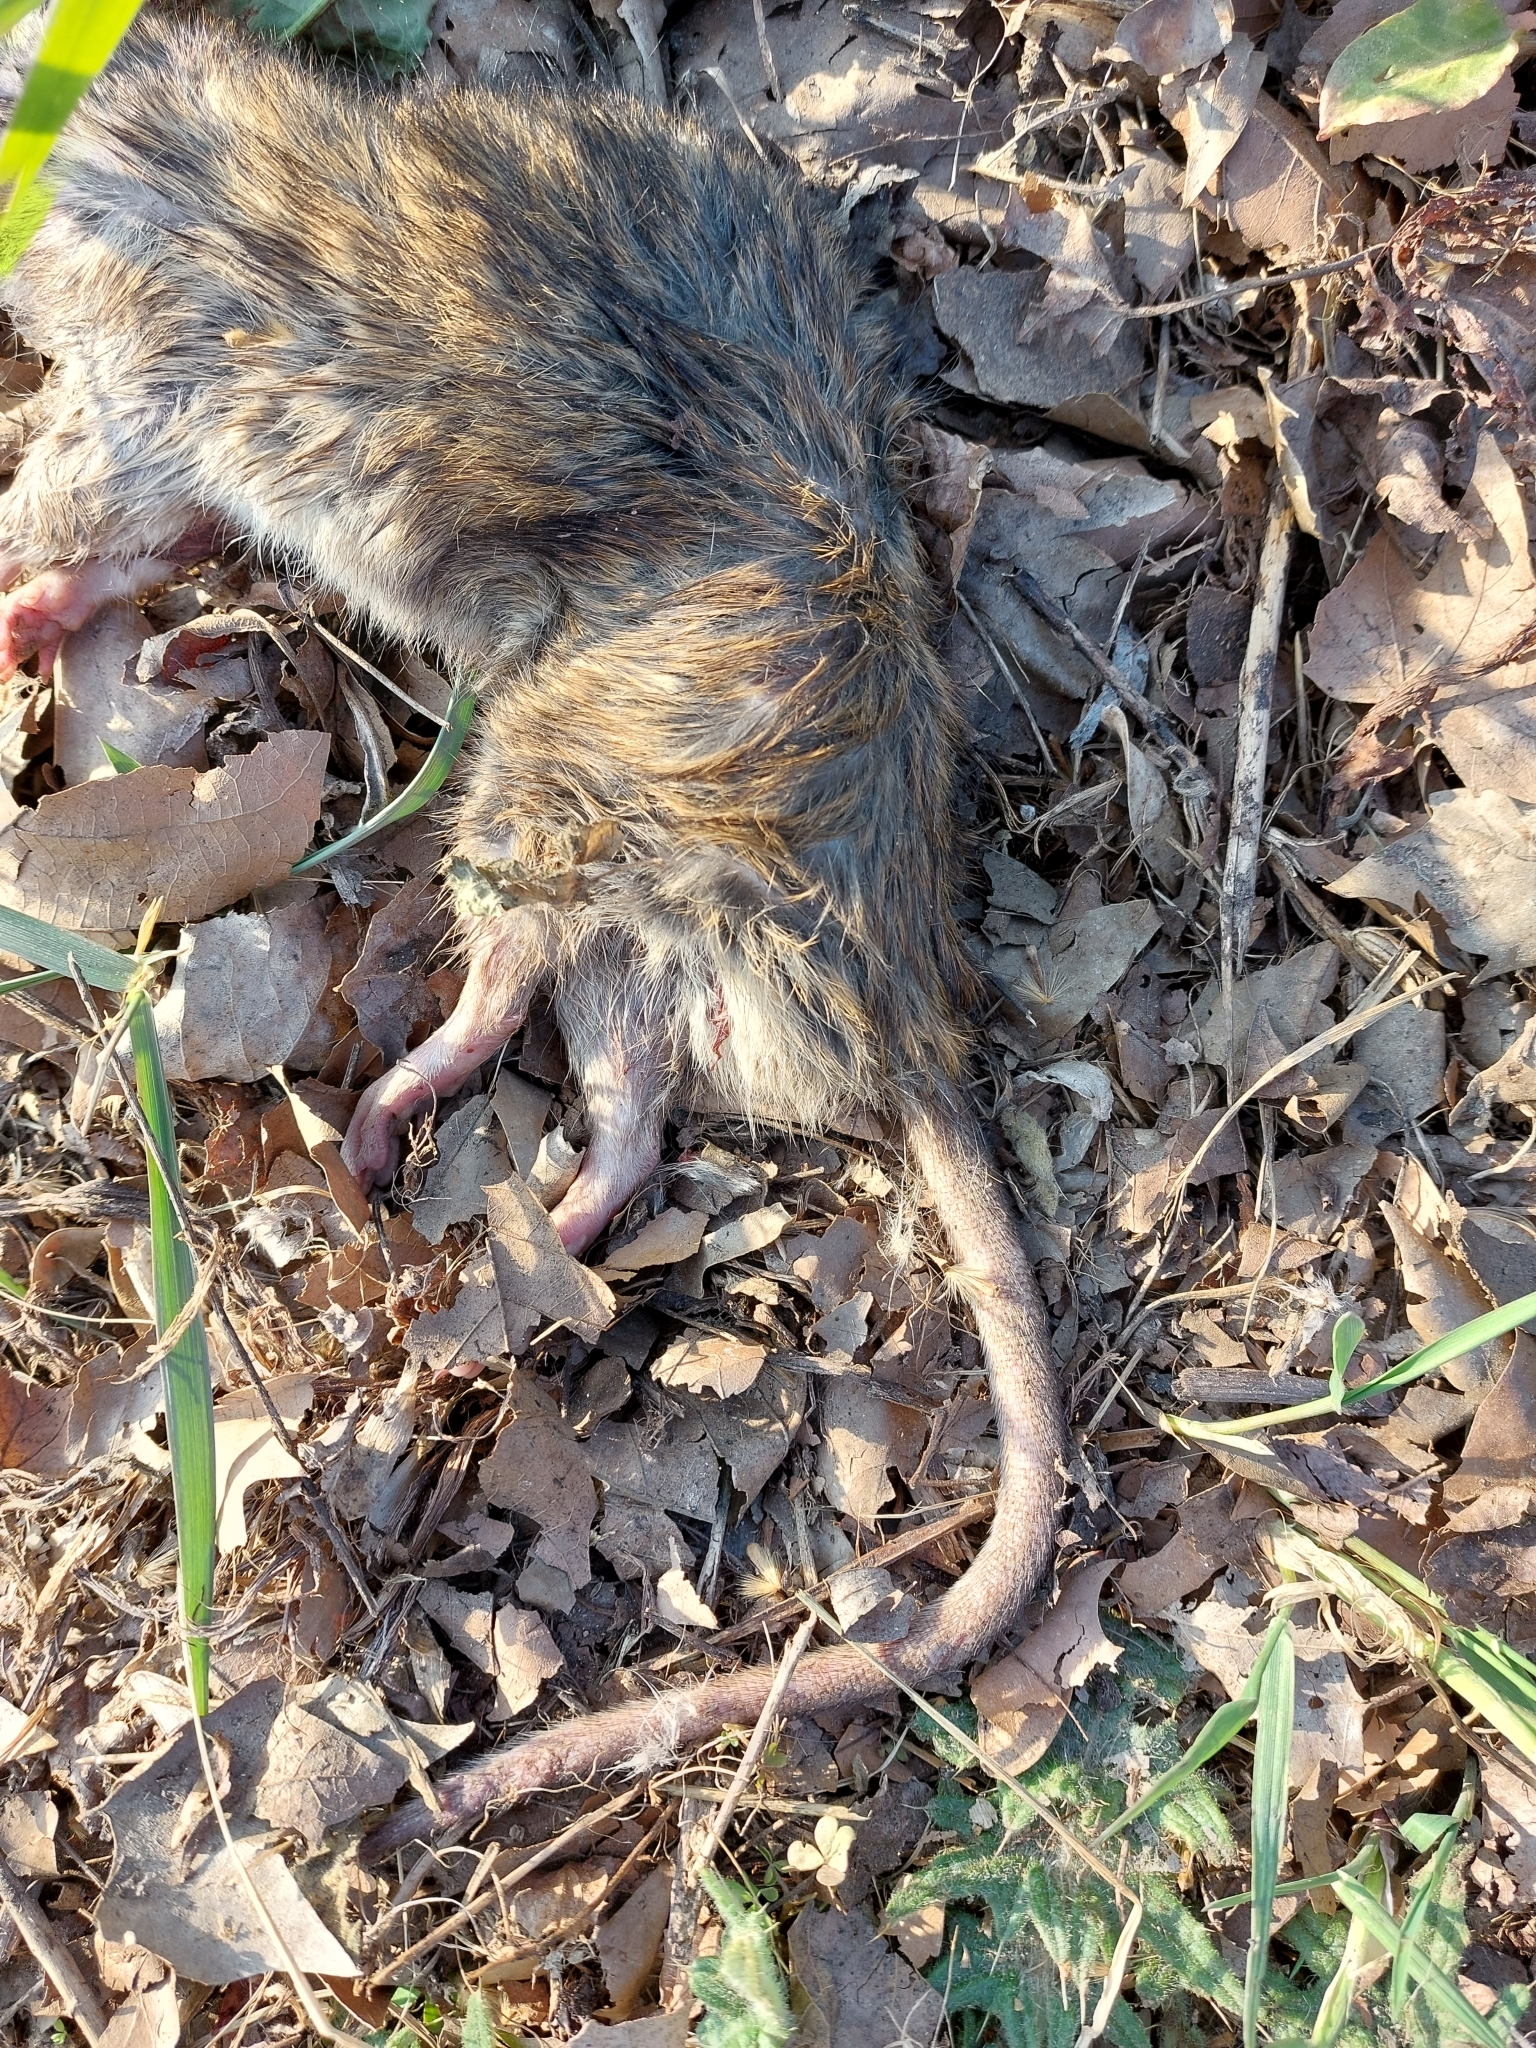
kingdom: Animalia
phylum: Chordata
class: Mammalia
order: Rodentia
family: Muridae
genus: Rattus
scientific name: Rattus norvegicus
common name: Brown rat
